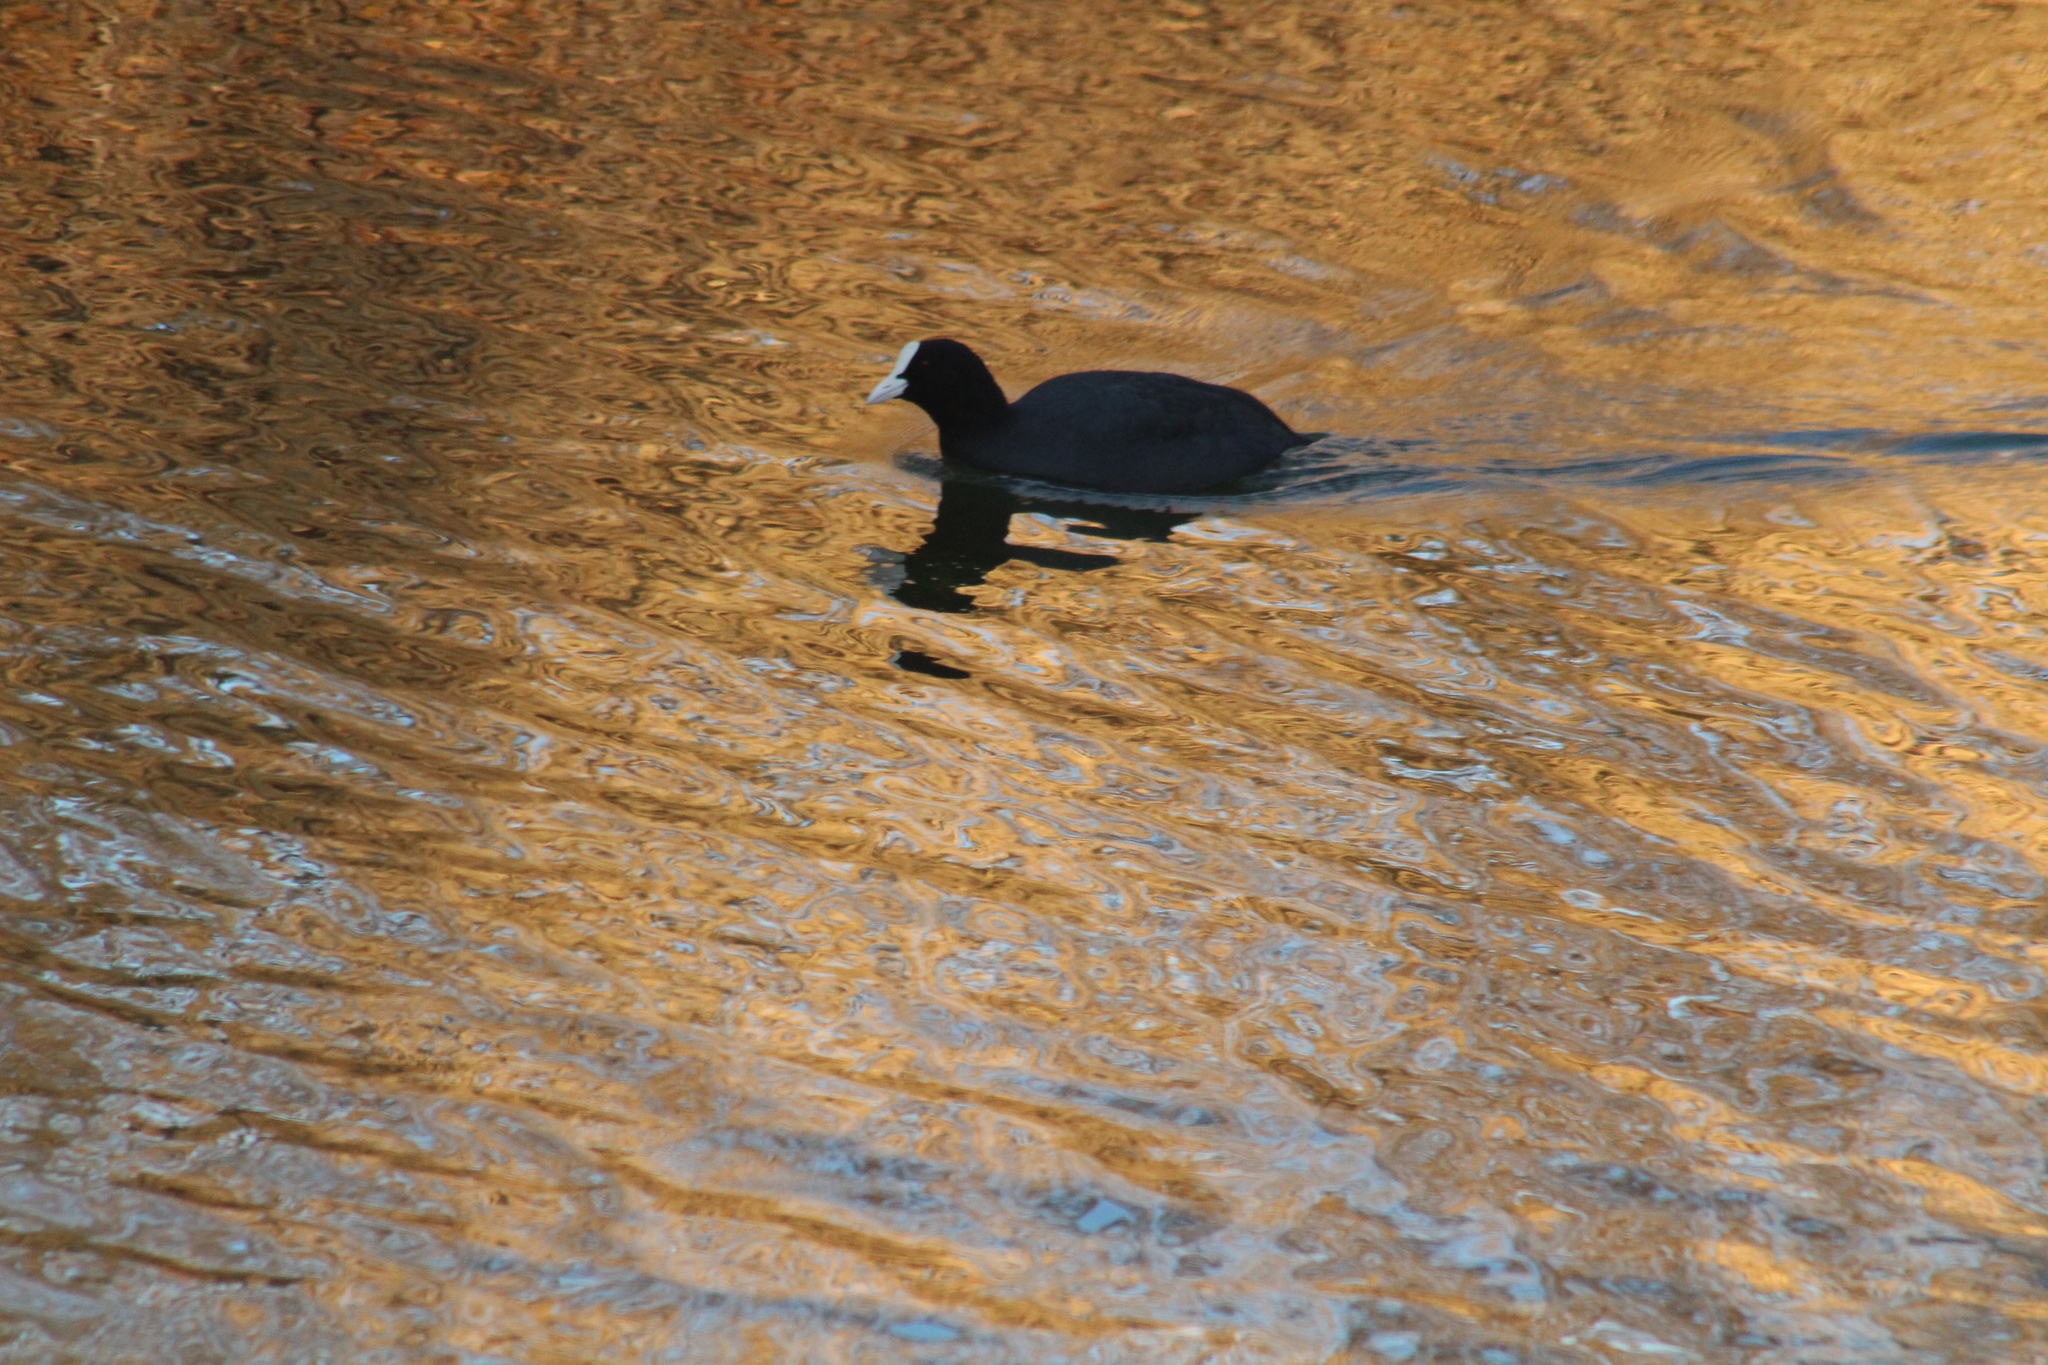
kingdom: Animalia
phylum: Chordata
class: Aves
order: Gruiformes
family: Rallidae
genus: Fulica
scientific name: Fulica atra
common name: Eurasian coot
